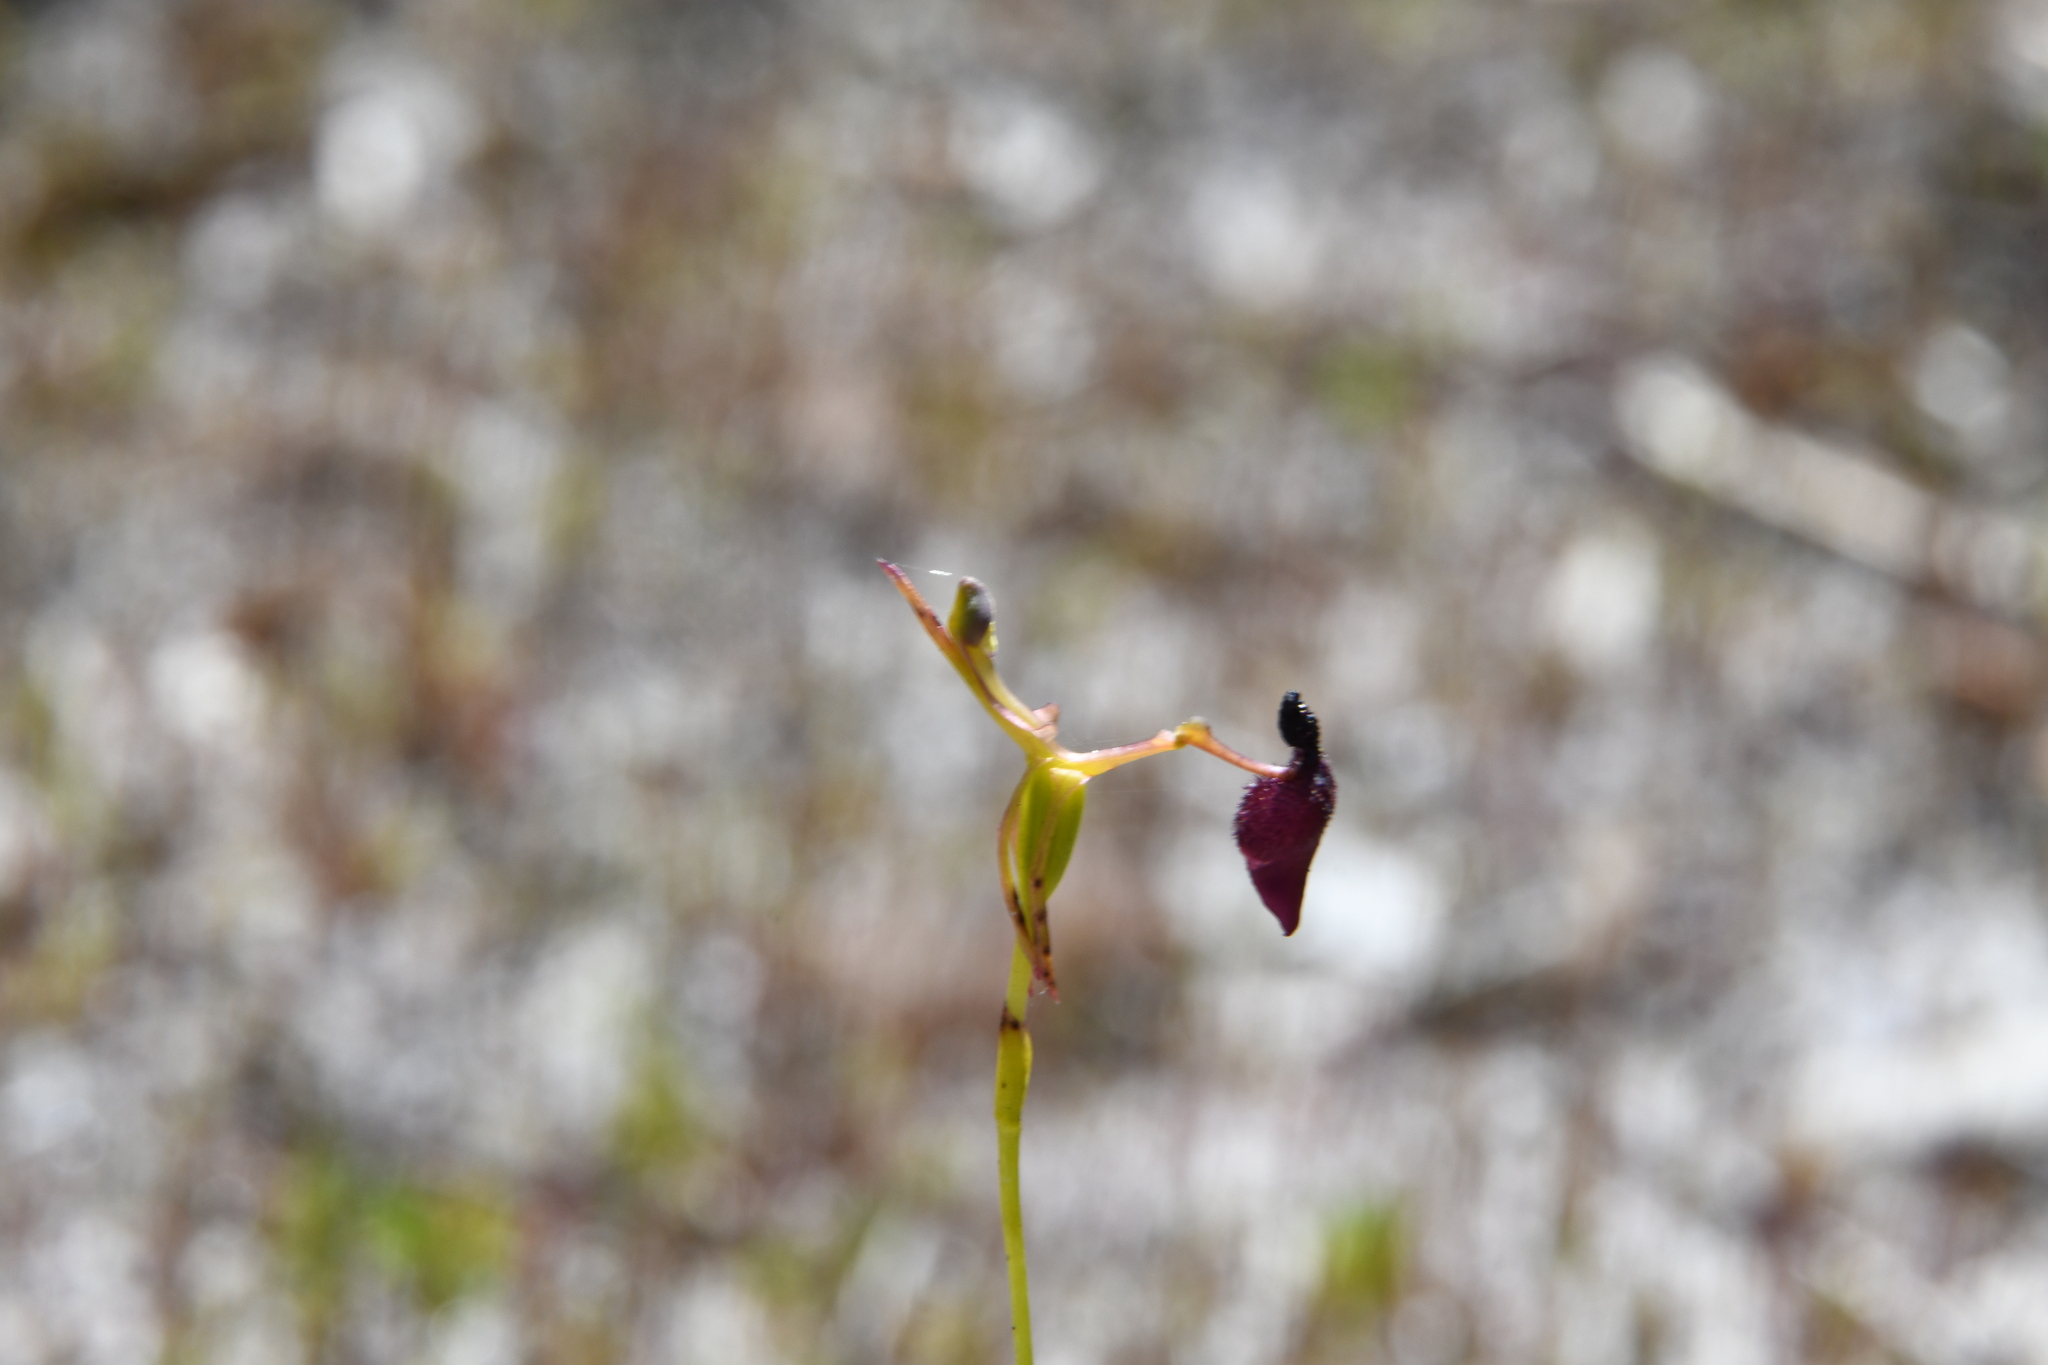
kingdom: Plantae
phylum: Tracheophyta
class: Liliopsida
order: Asparagales
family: Orchidaceae
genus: Drakaea
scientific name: Drakaea glyptodon
